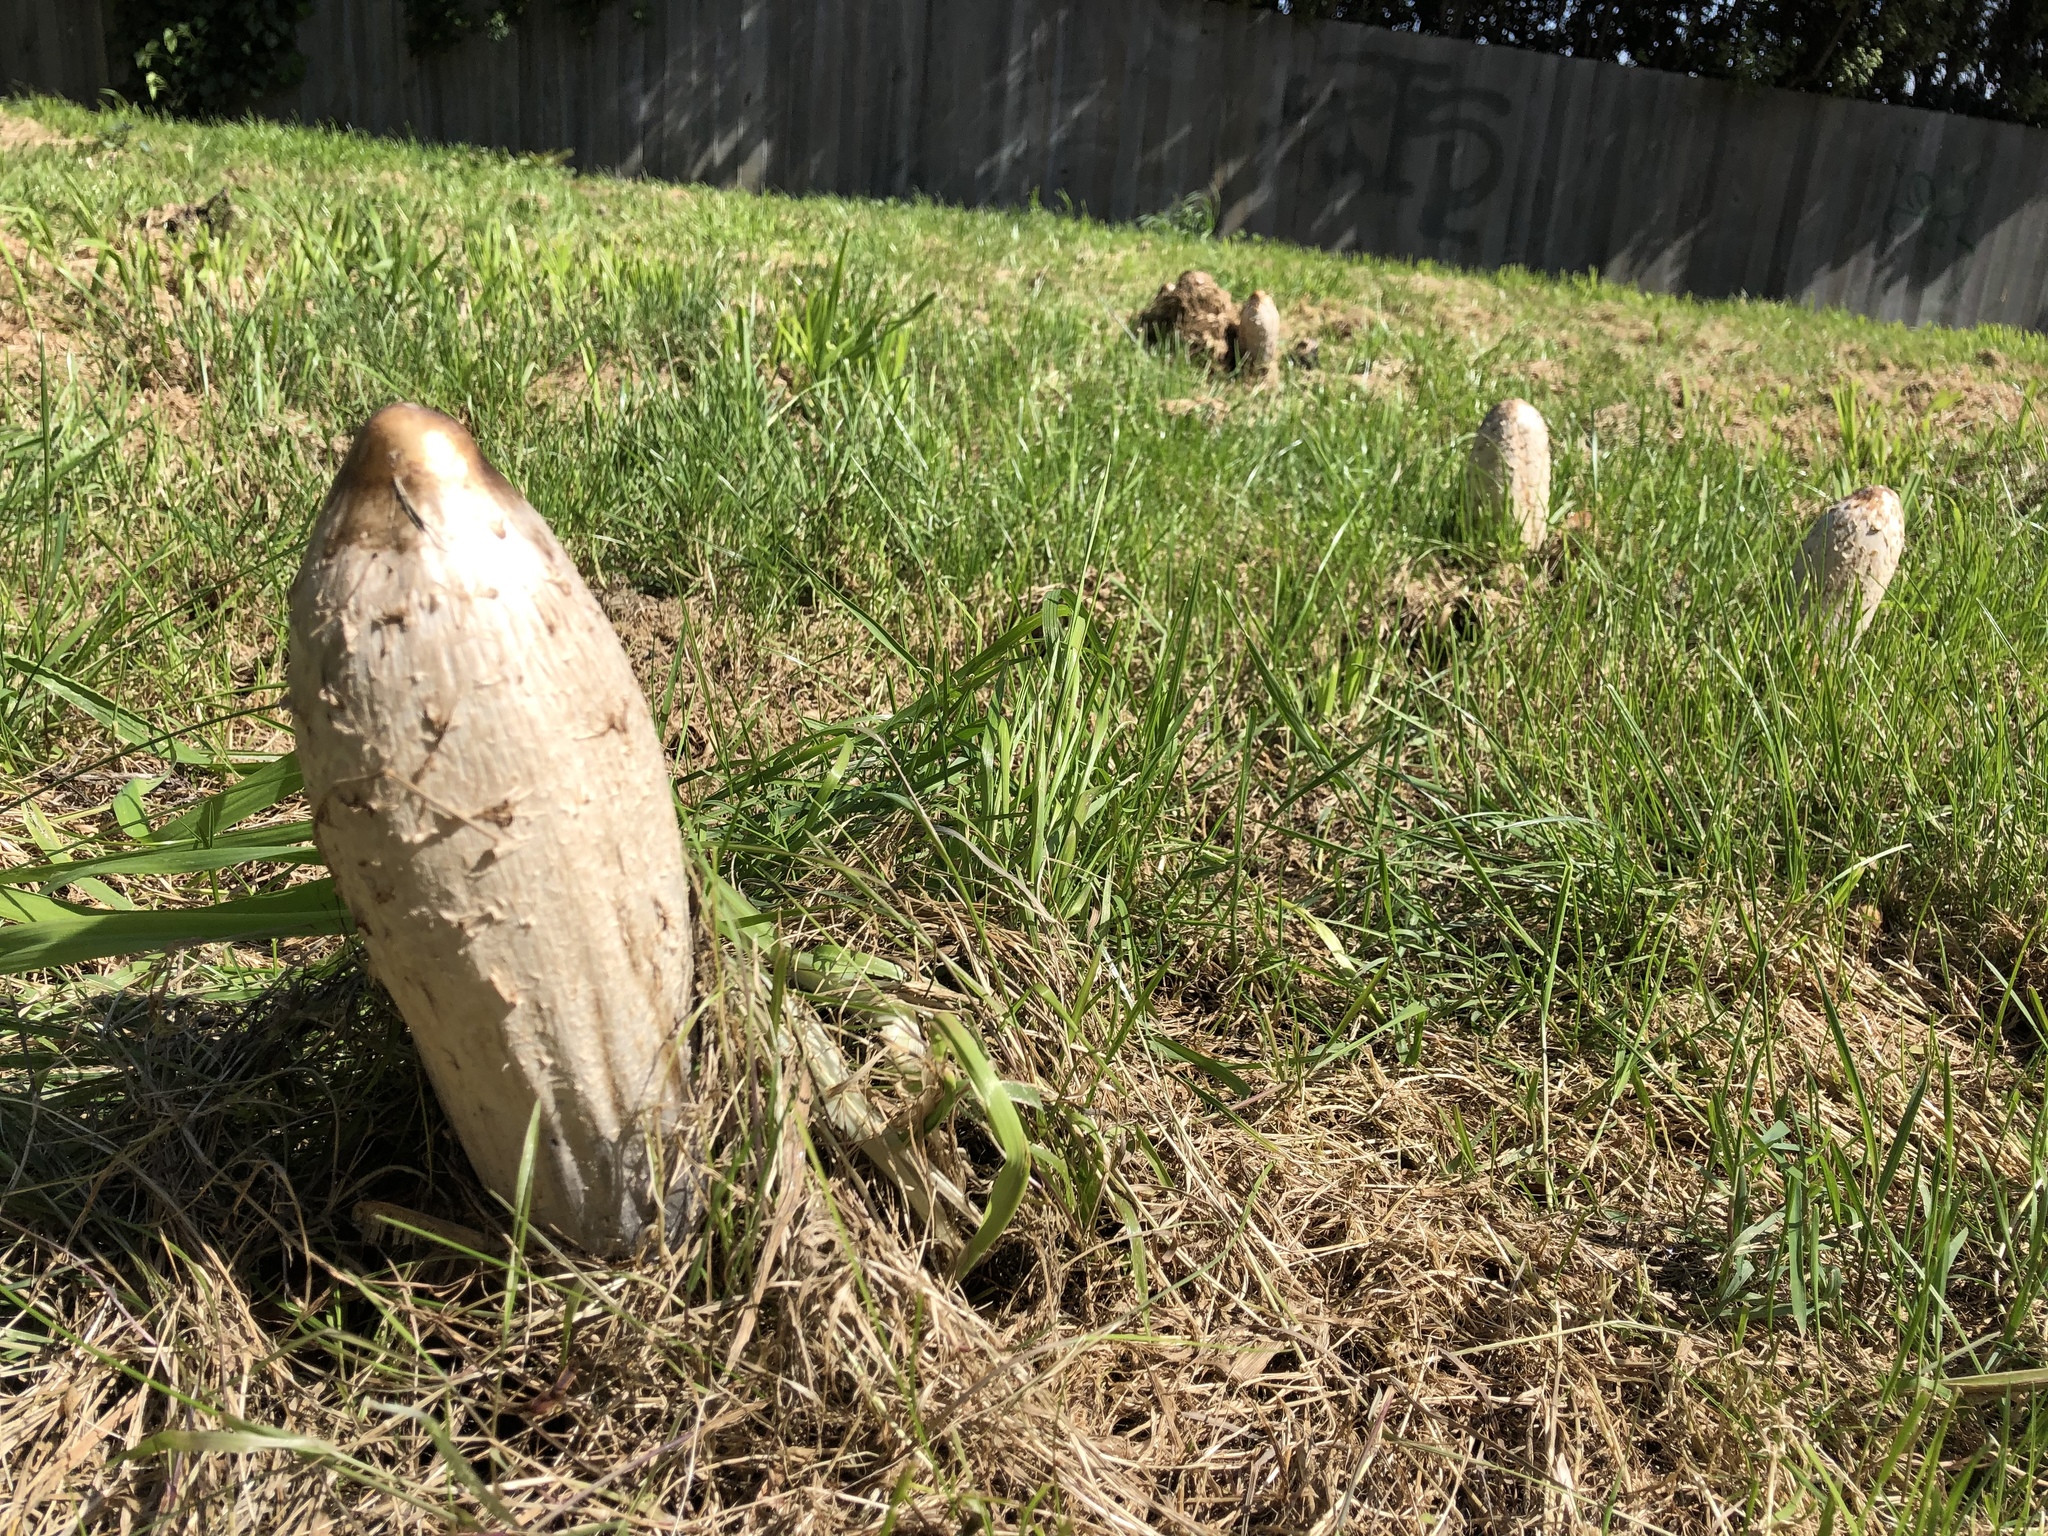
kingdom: Fungi
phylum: Basidiomycota
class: Agaricomycetes
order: Agaricales
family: Agaricaceae
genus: Coprinus
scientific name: Coprinus comatus
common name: Lawyer's wig
